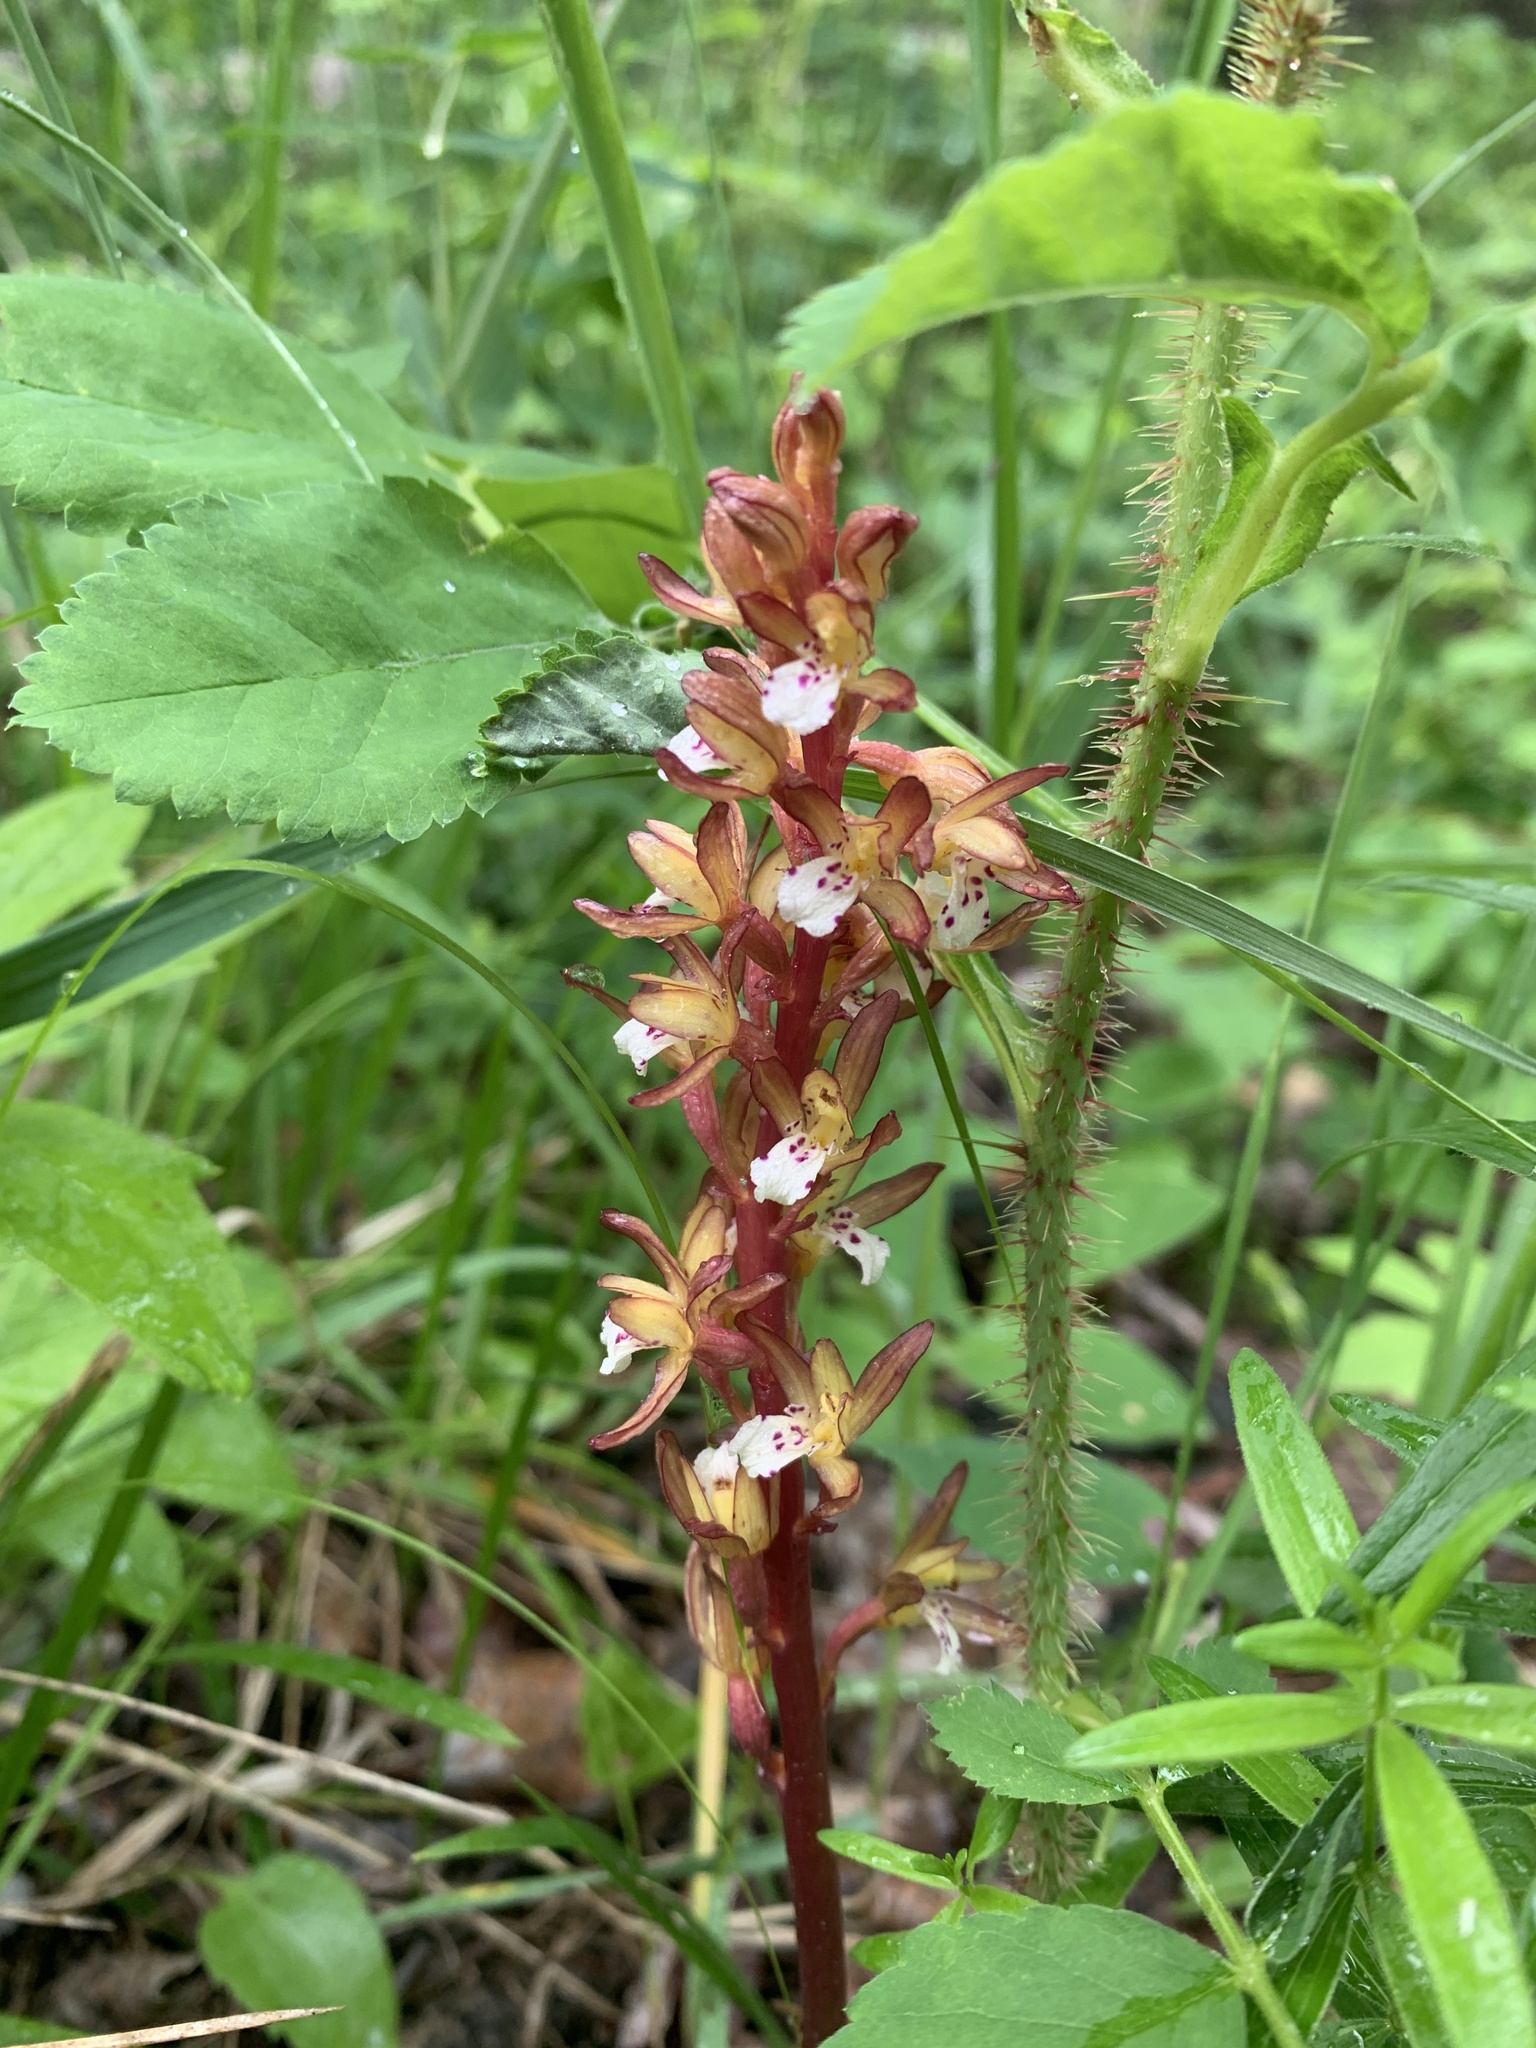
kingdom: Plantae
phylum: Tracheophyta
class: Liliopsida
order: Asparagales
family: Orchidaceae
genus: Corallorhiza
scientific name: Corallorhiza maculata
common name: Spotted coralroot
